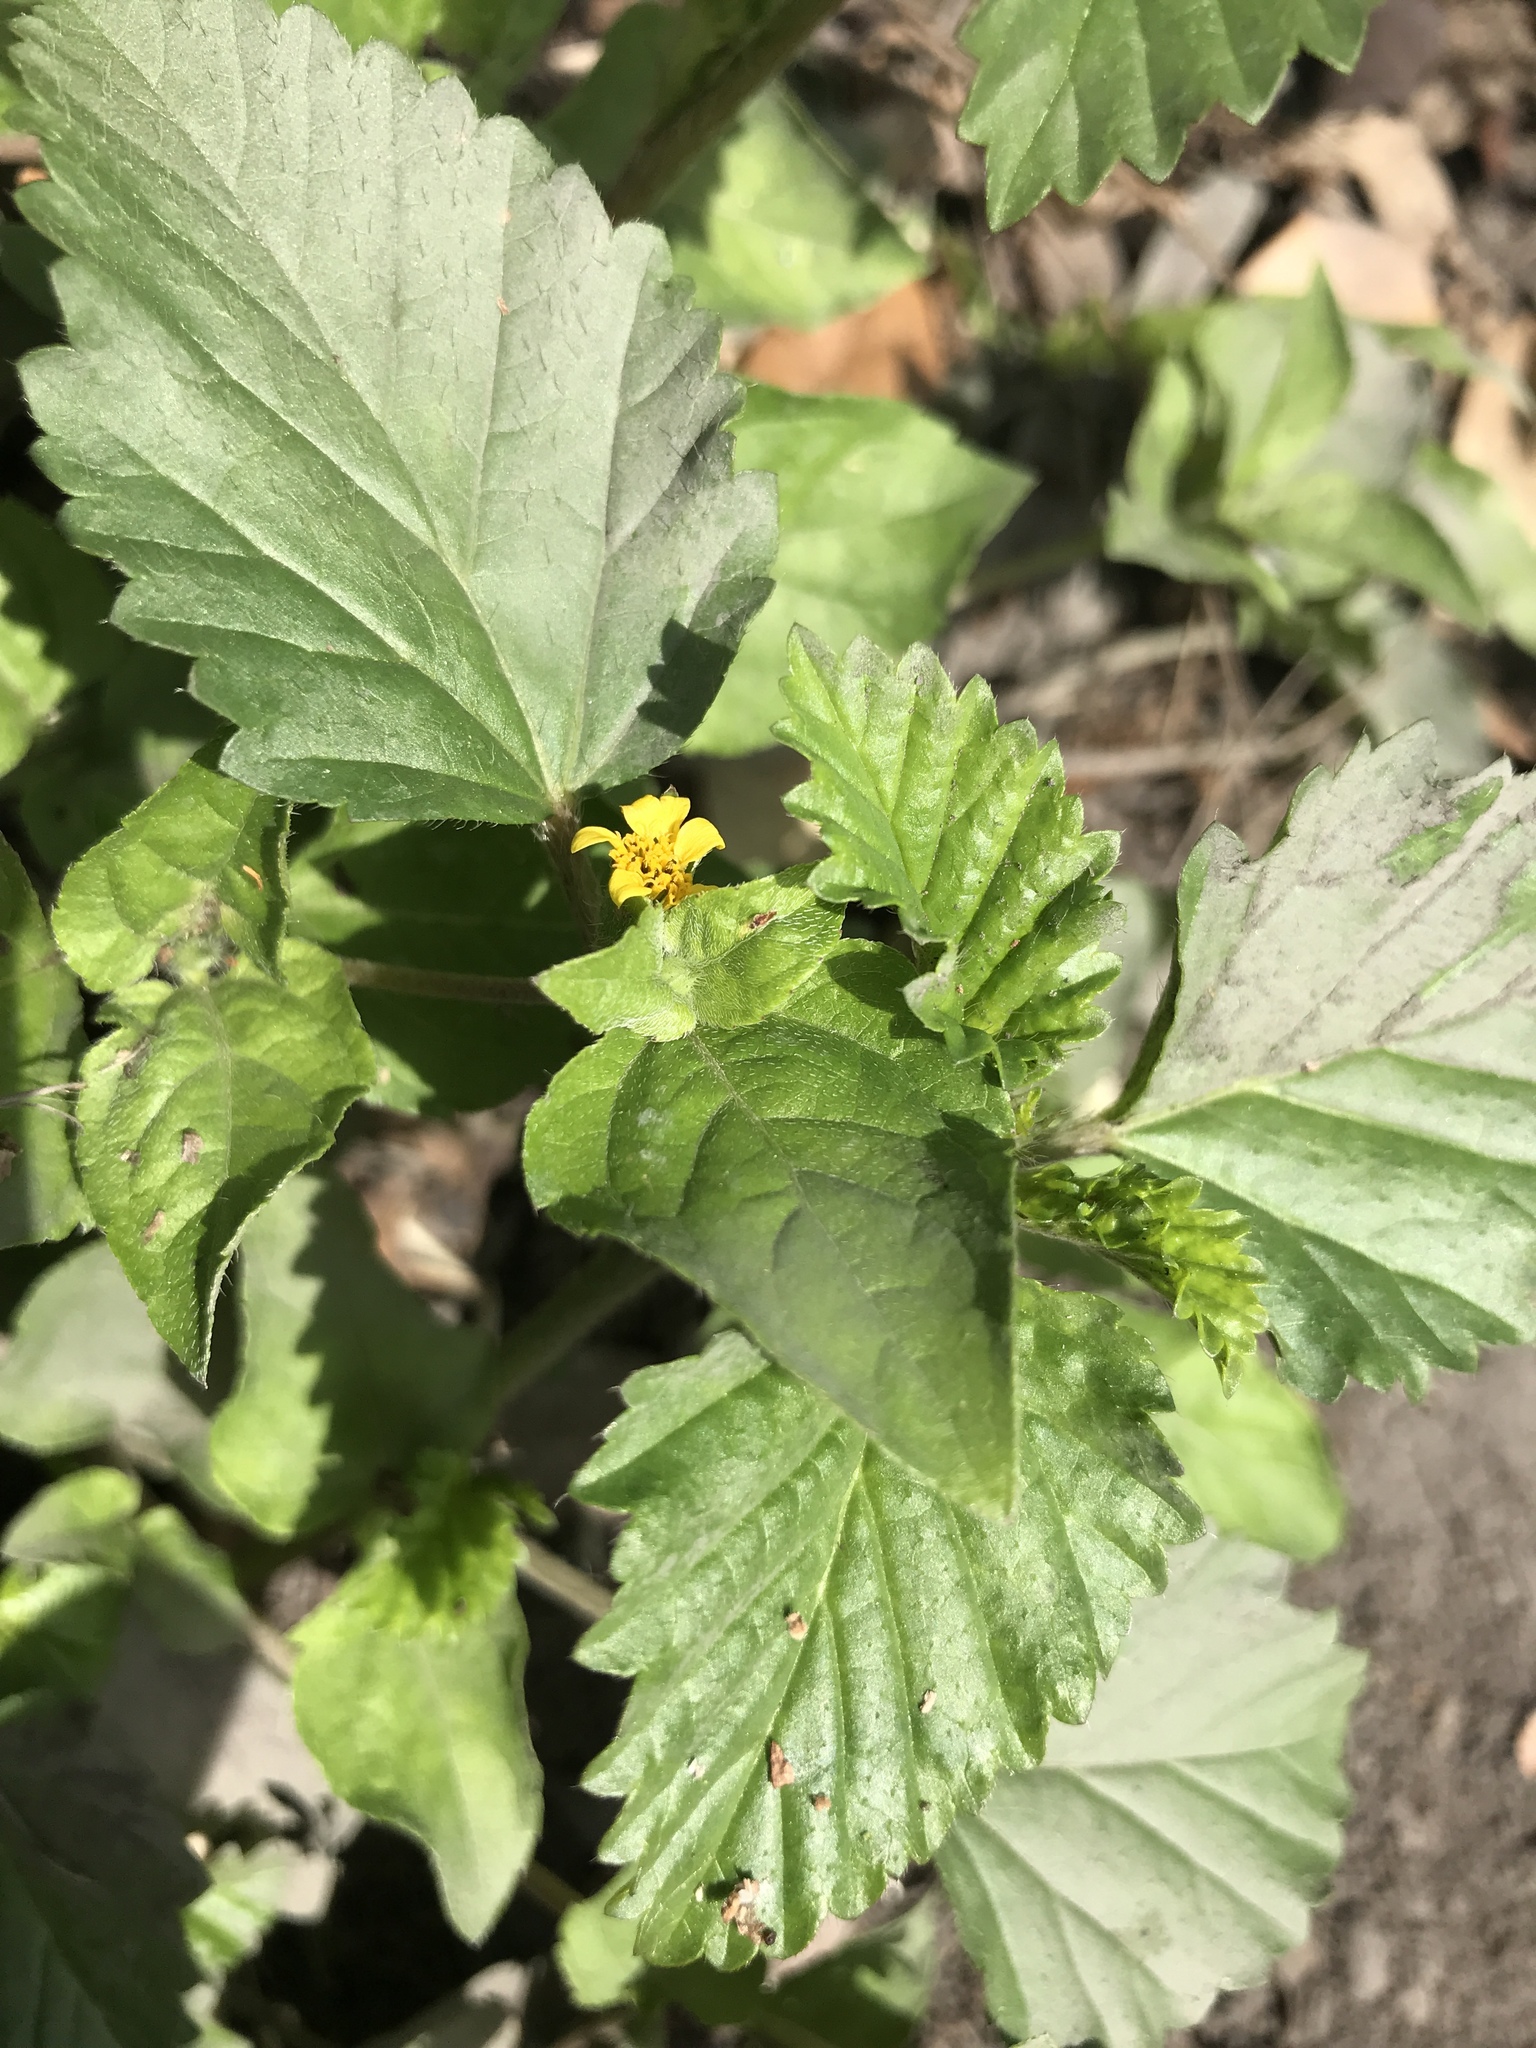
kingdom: Plantae
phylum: Tracheophyta
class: Magnoliopsida
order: Malvales
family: Malvaceae
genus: Malvastrum
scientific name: Malvastrum coromandelianum
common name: Threelobe false mallow
